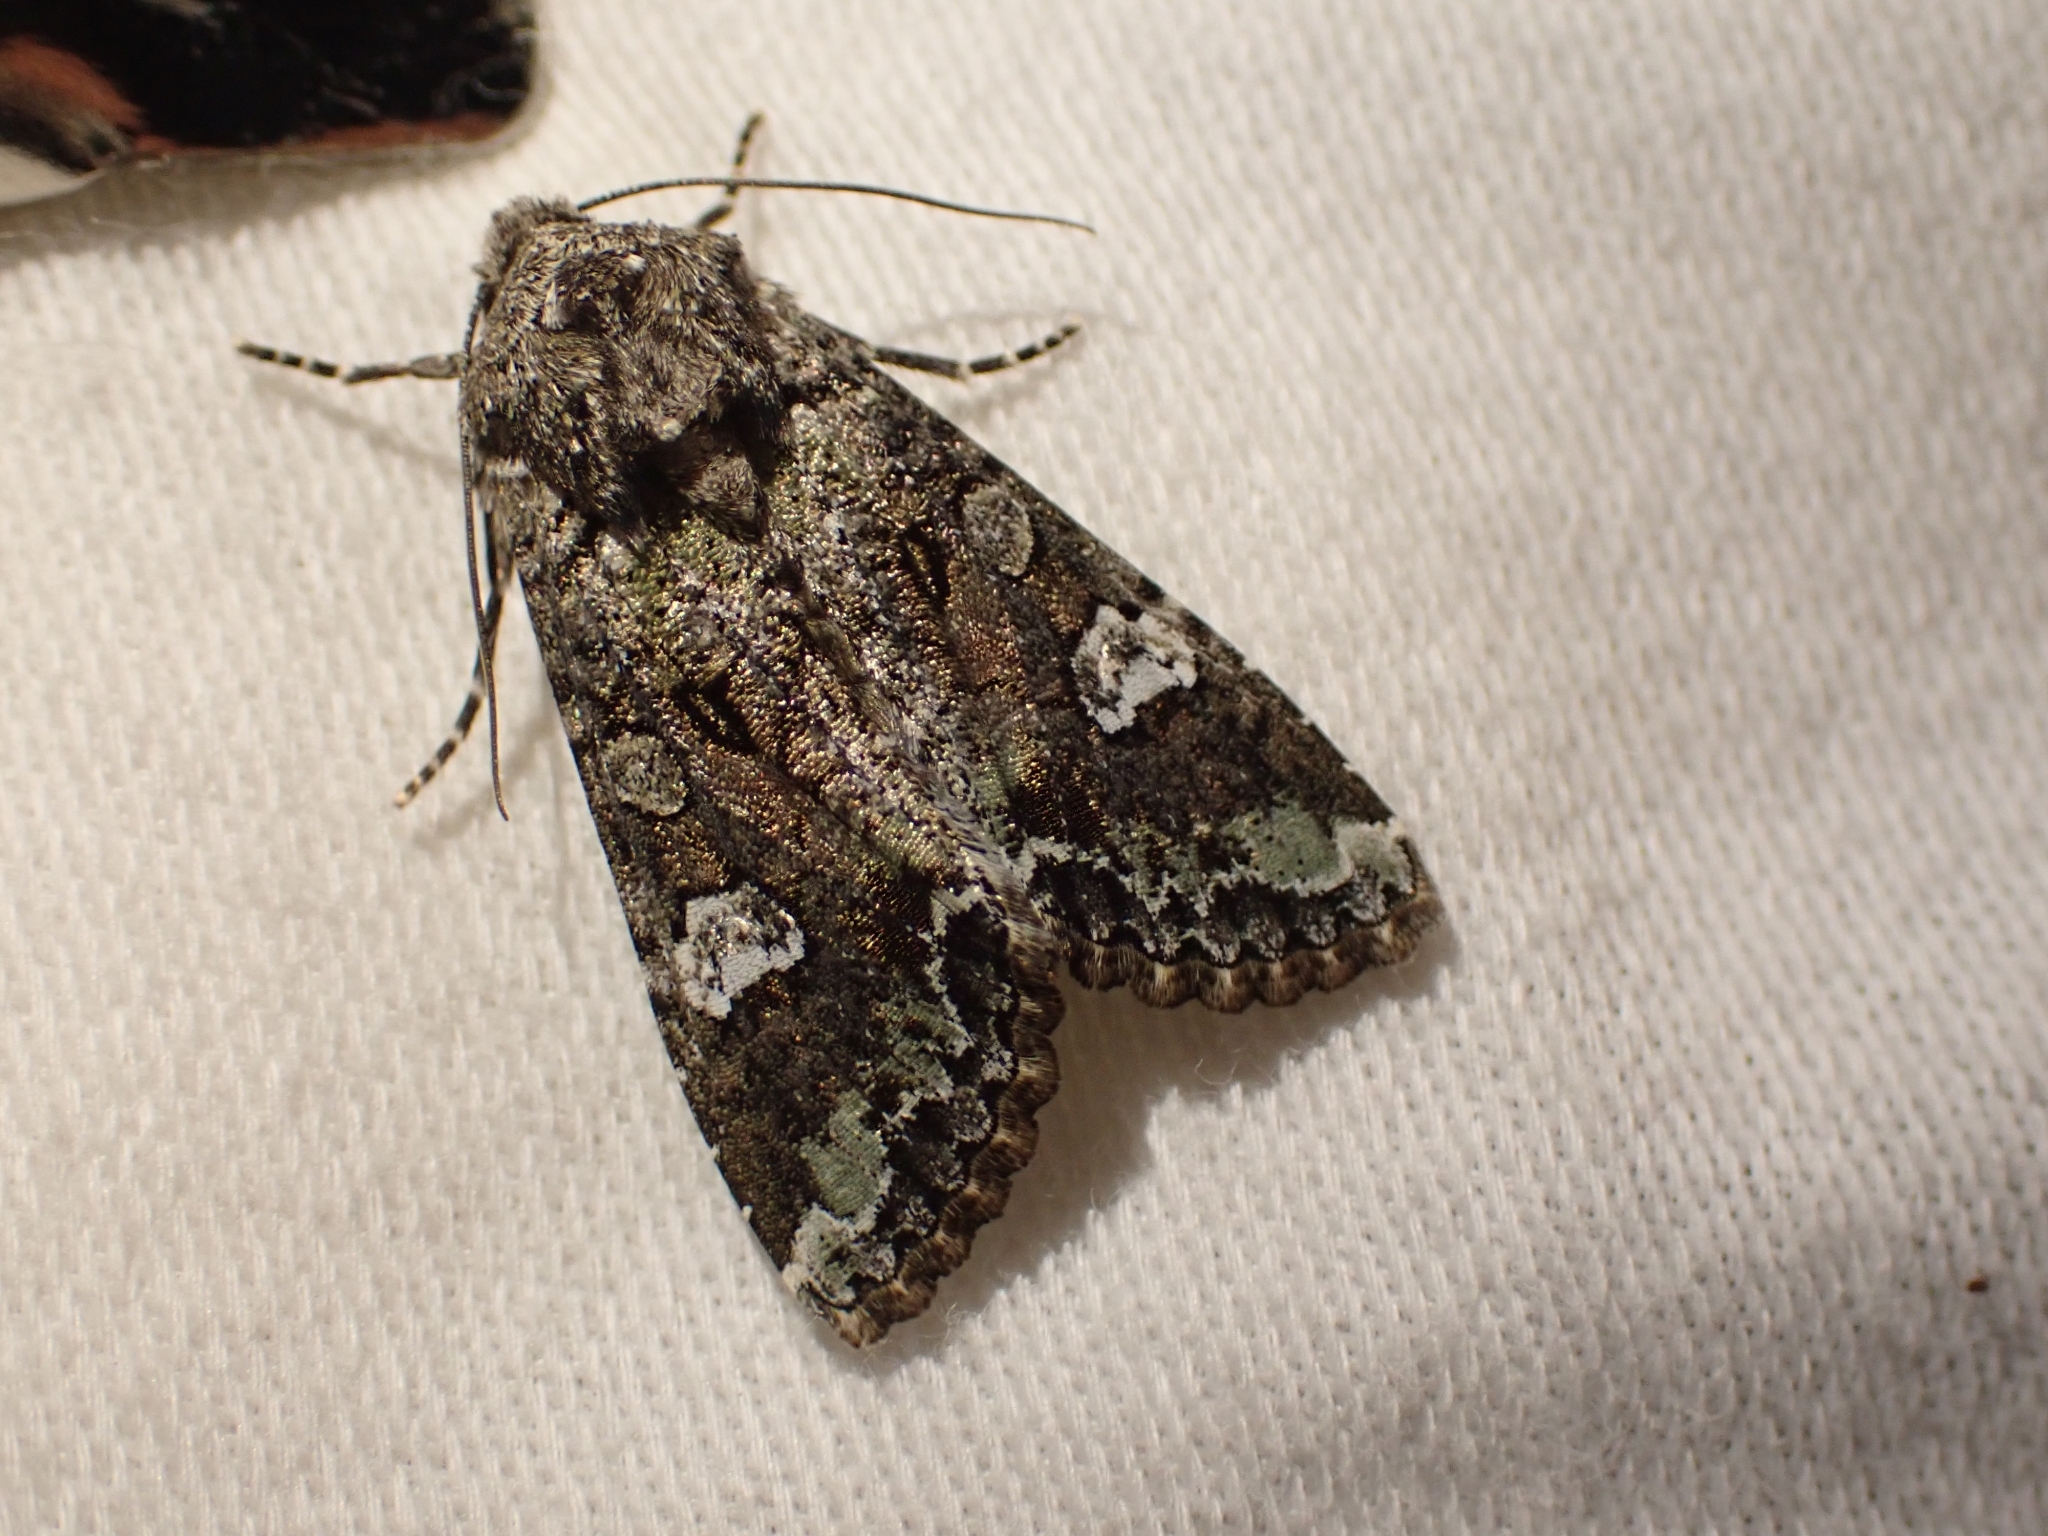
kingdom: Animalia
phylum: Arthropoda
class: Insecta
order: Lepidoptera
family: Noctuidae
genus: Mamestra
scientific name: Mamestra configurata
